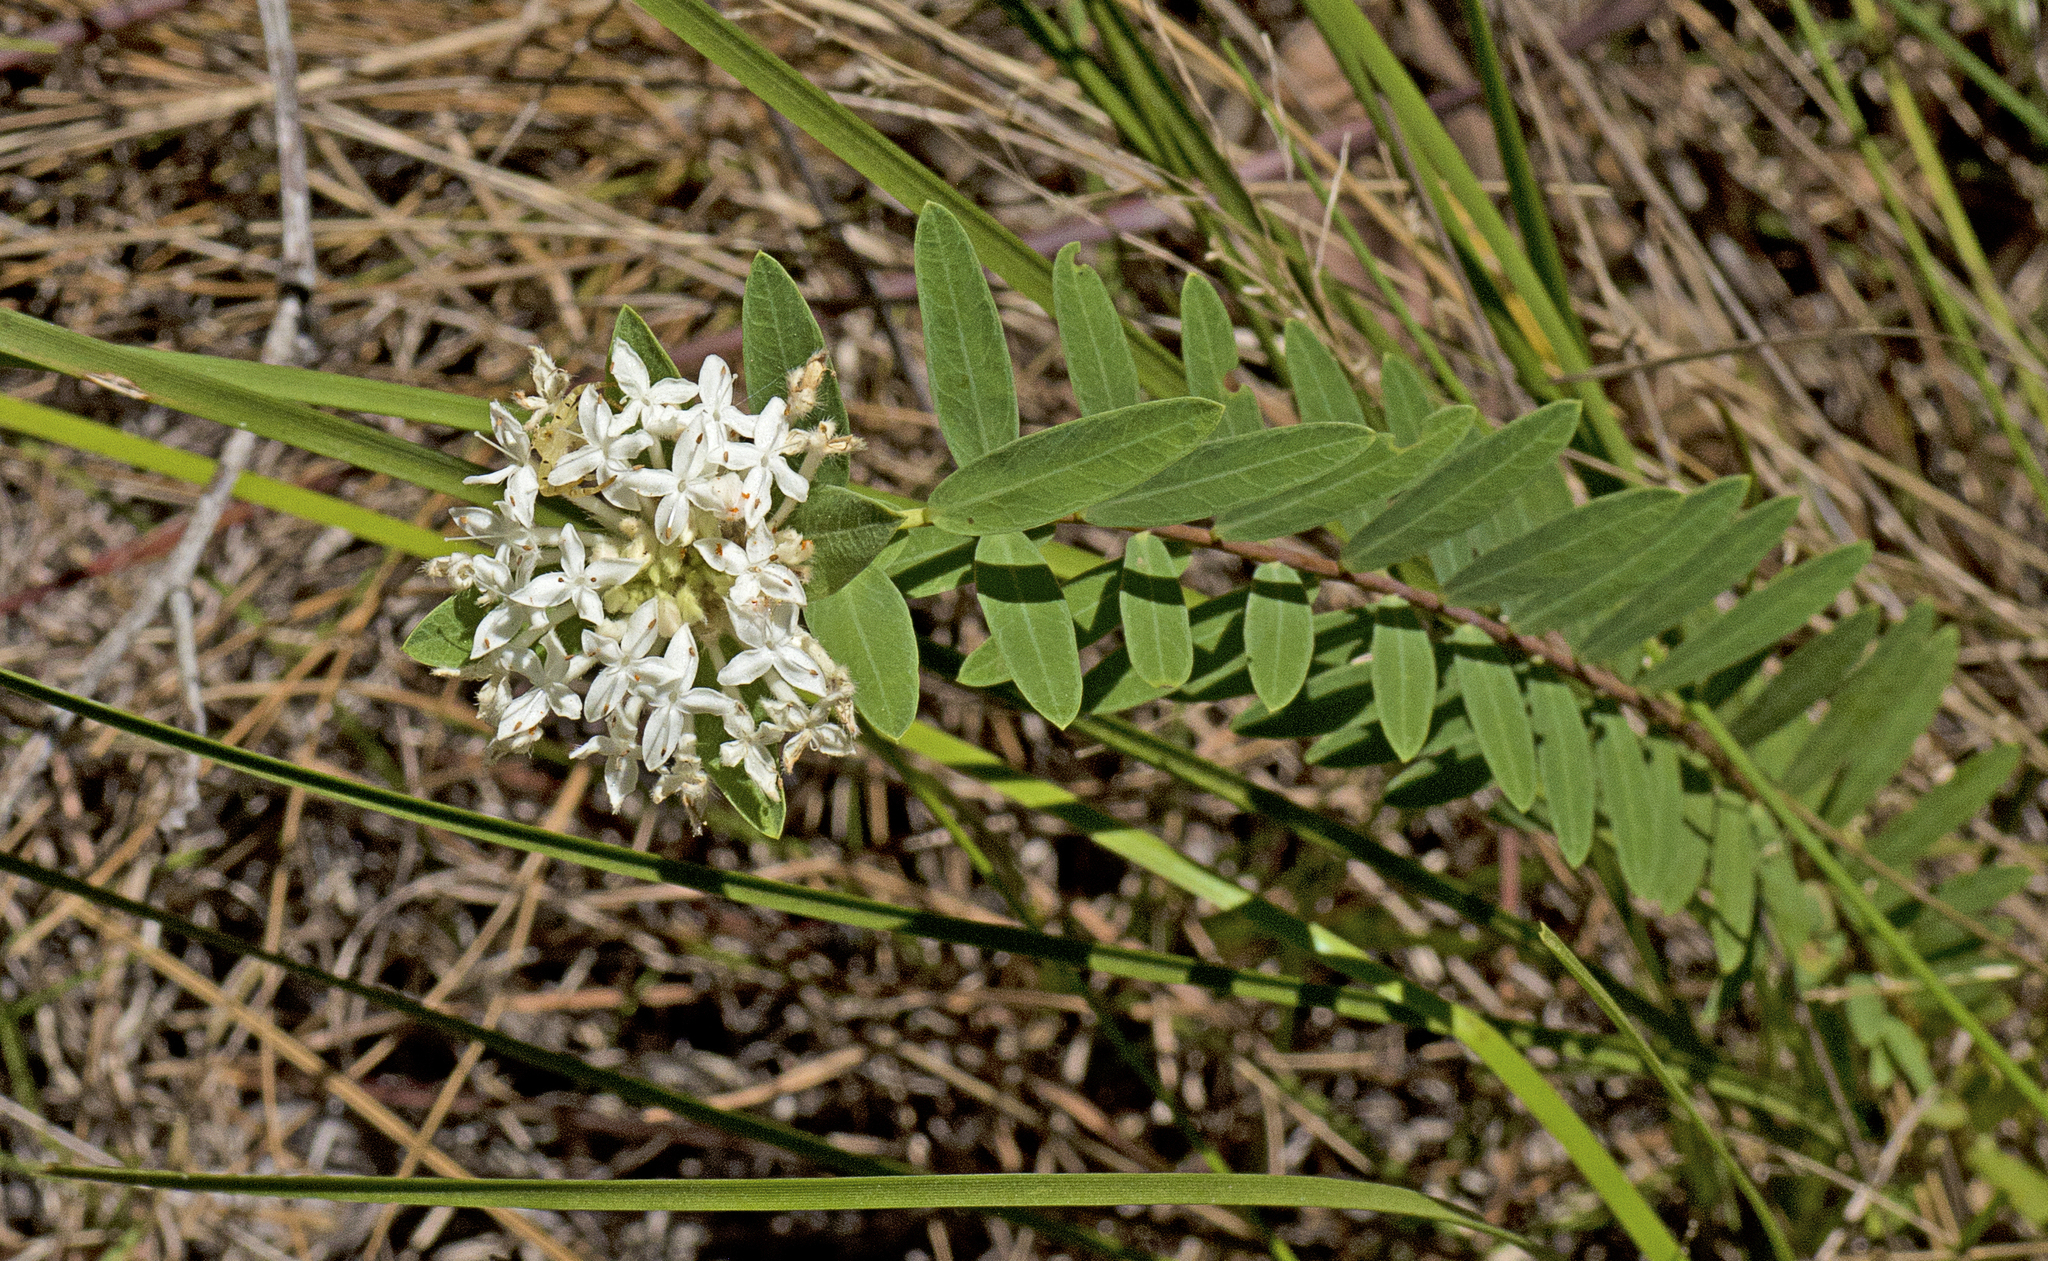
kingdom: Plantae
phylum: Tracheophyta
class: Magnoliopsida
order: Malvales
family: Thymelaeaceae
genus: Pimelea
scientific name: Pimelea linifolia
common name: Queen-of-the-bush
